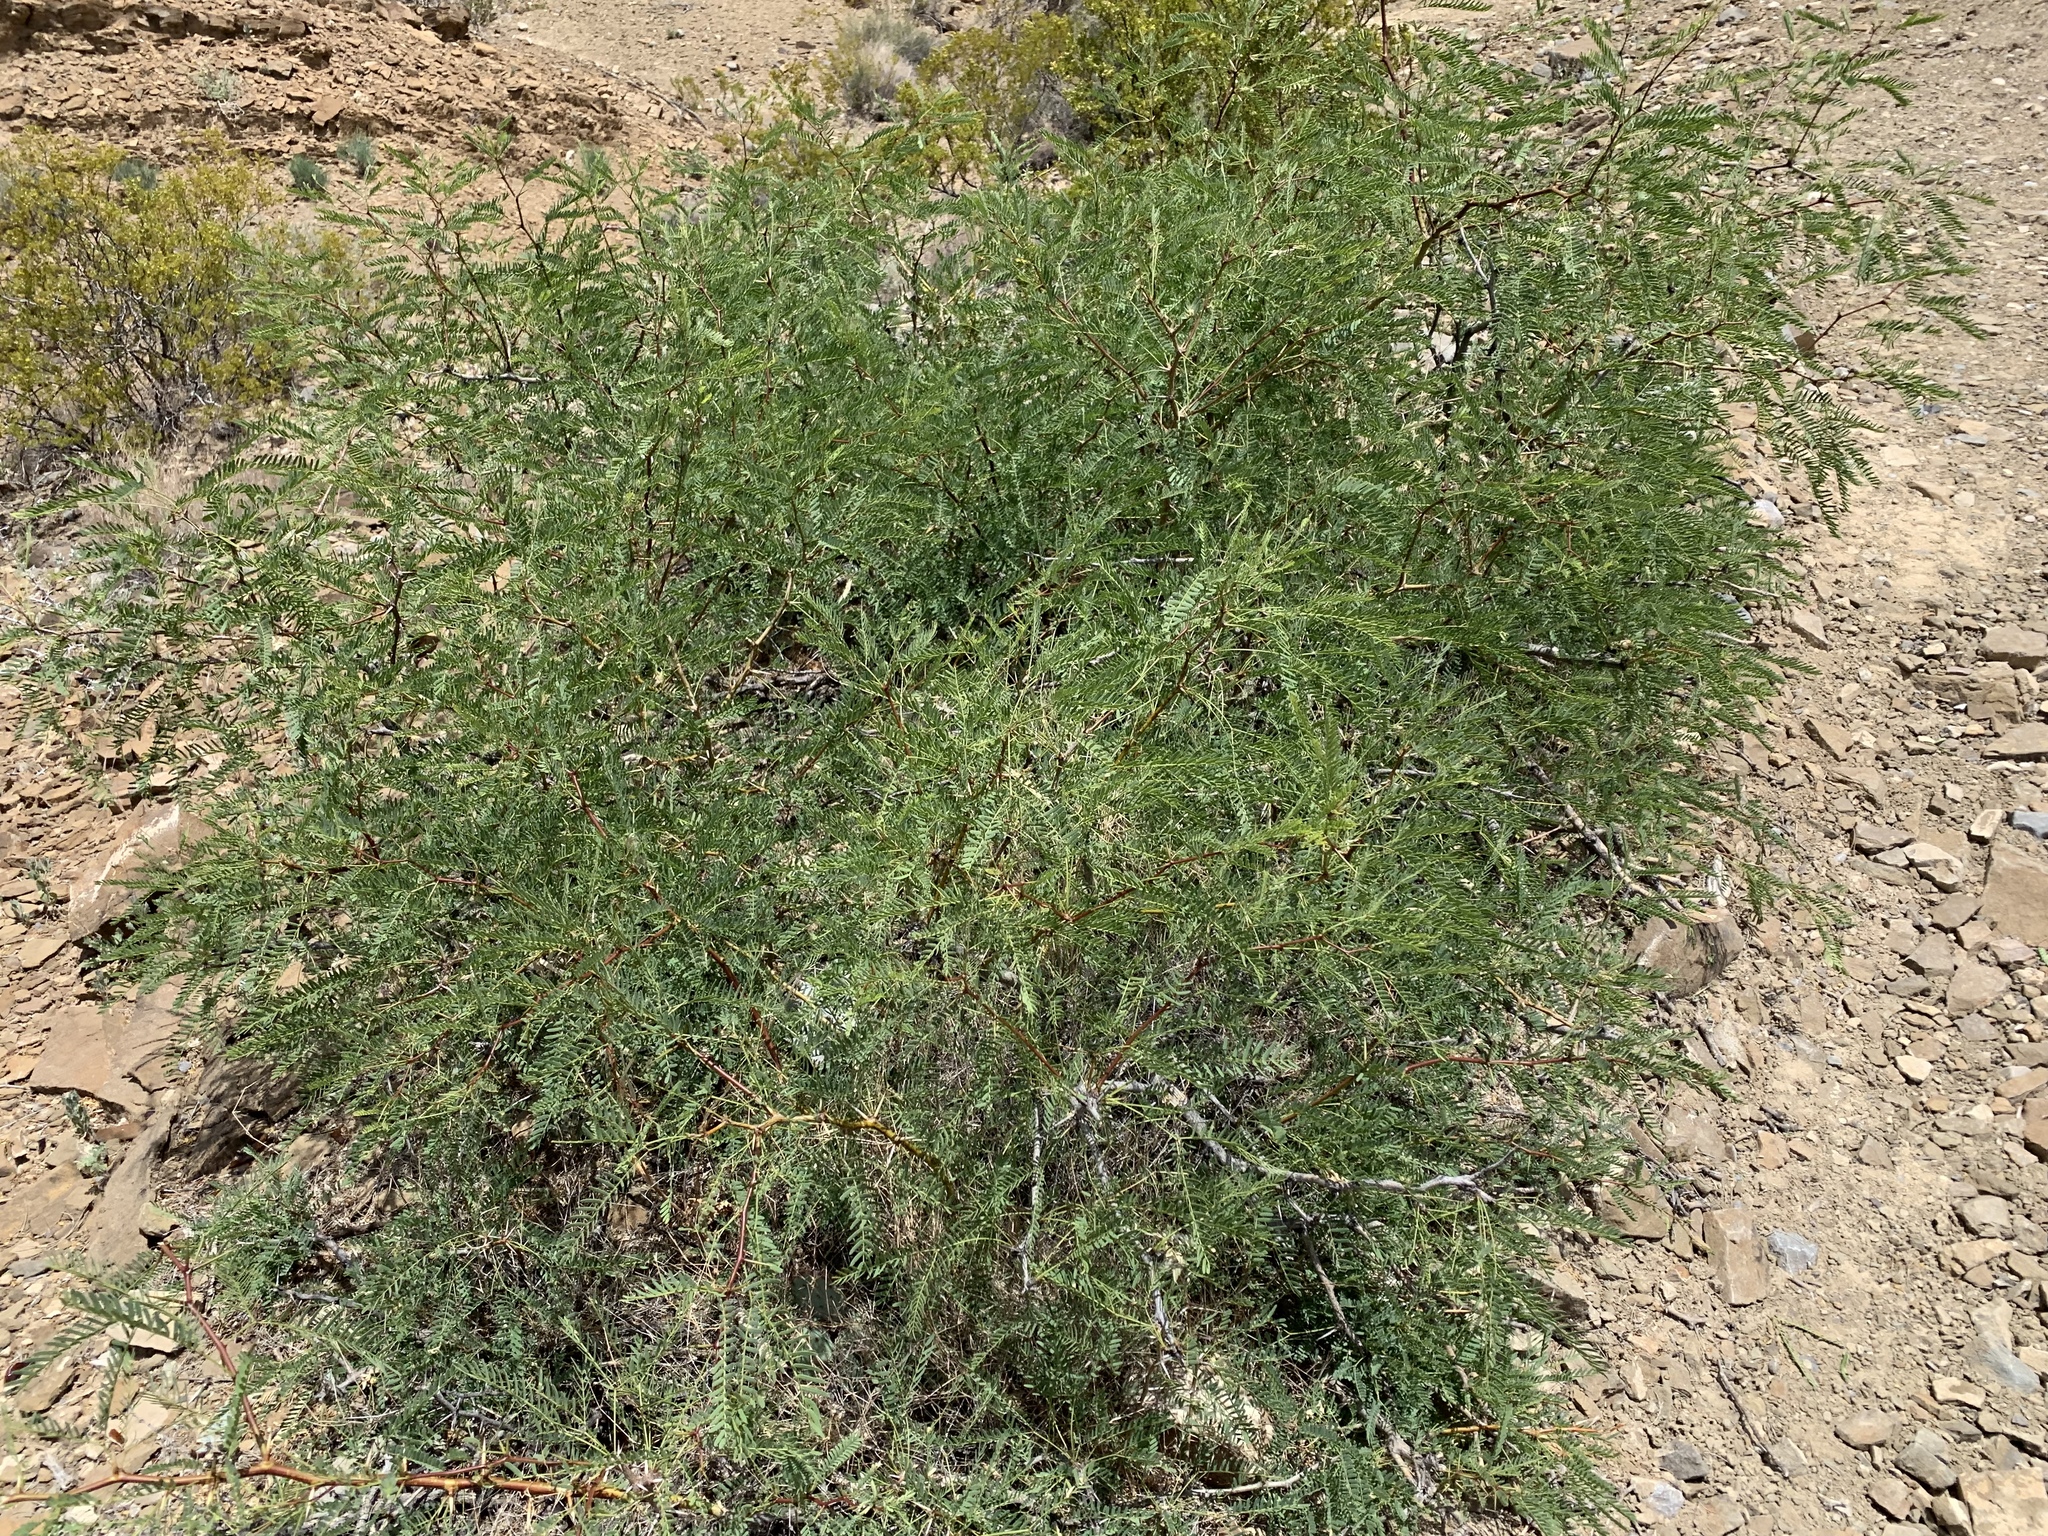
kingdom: Plantae
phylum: Tracheophyta
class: Magnoliopsida
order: Fabales
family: Fabaceae
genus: Prosopis
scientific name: Prosopis glandulosa
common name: Honey mesquite
